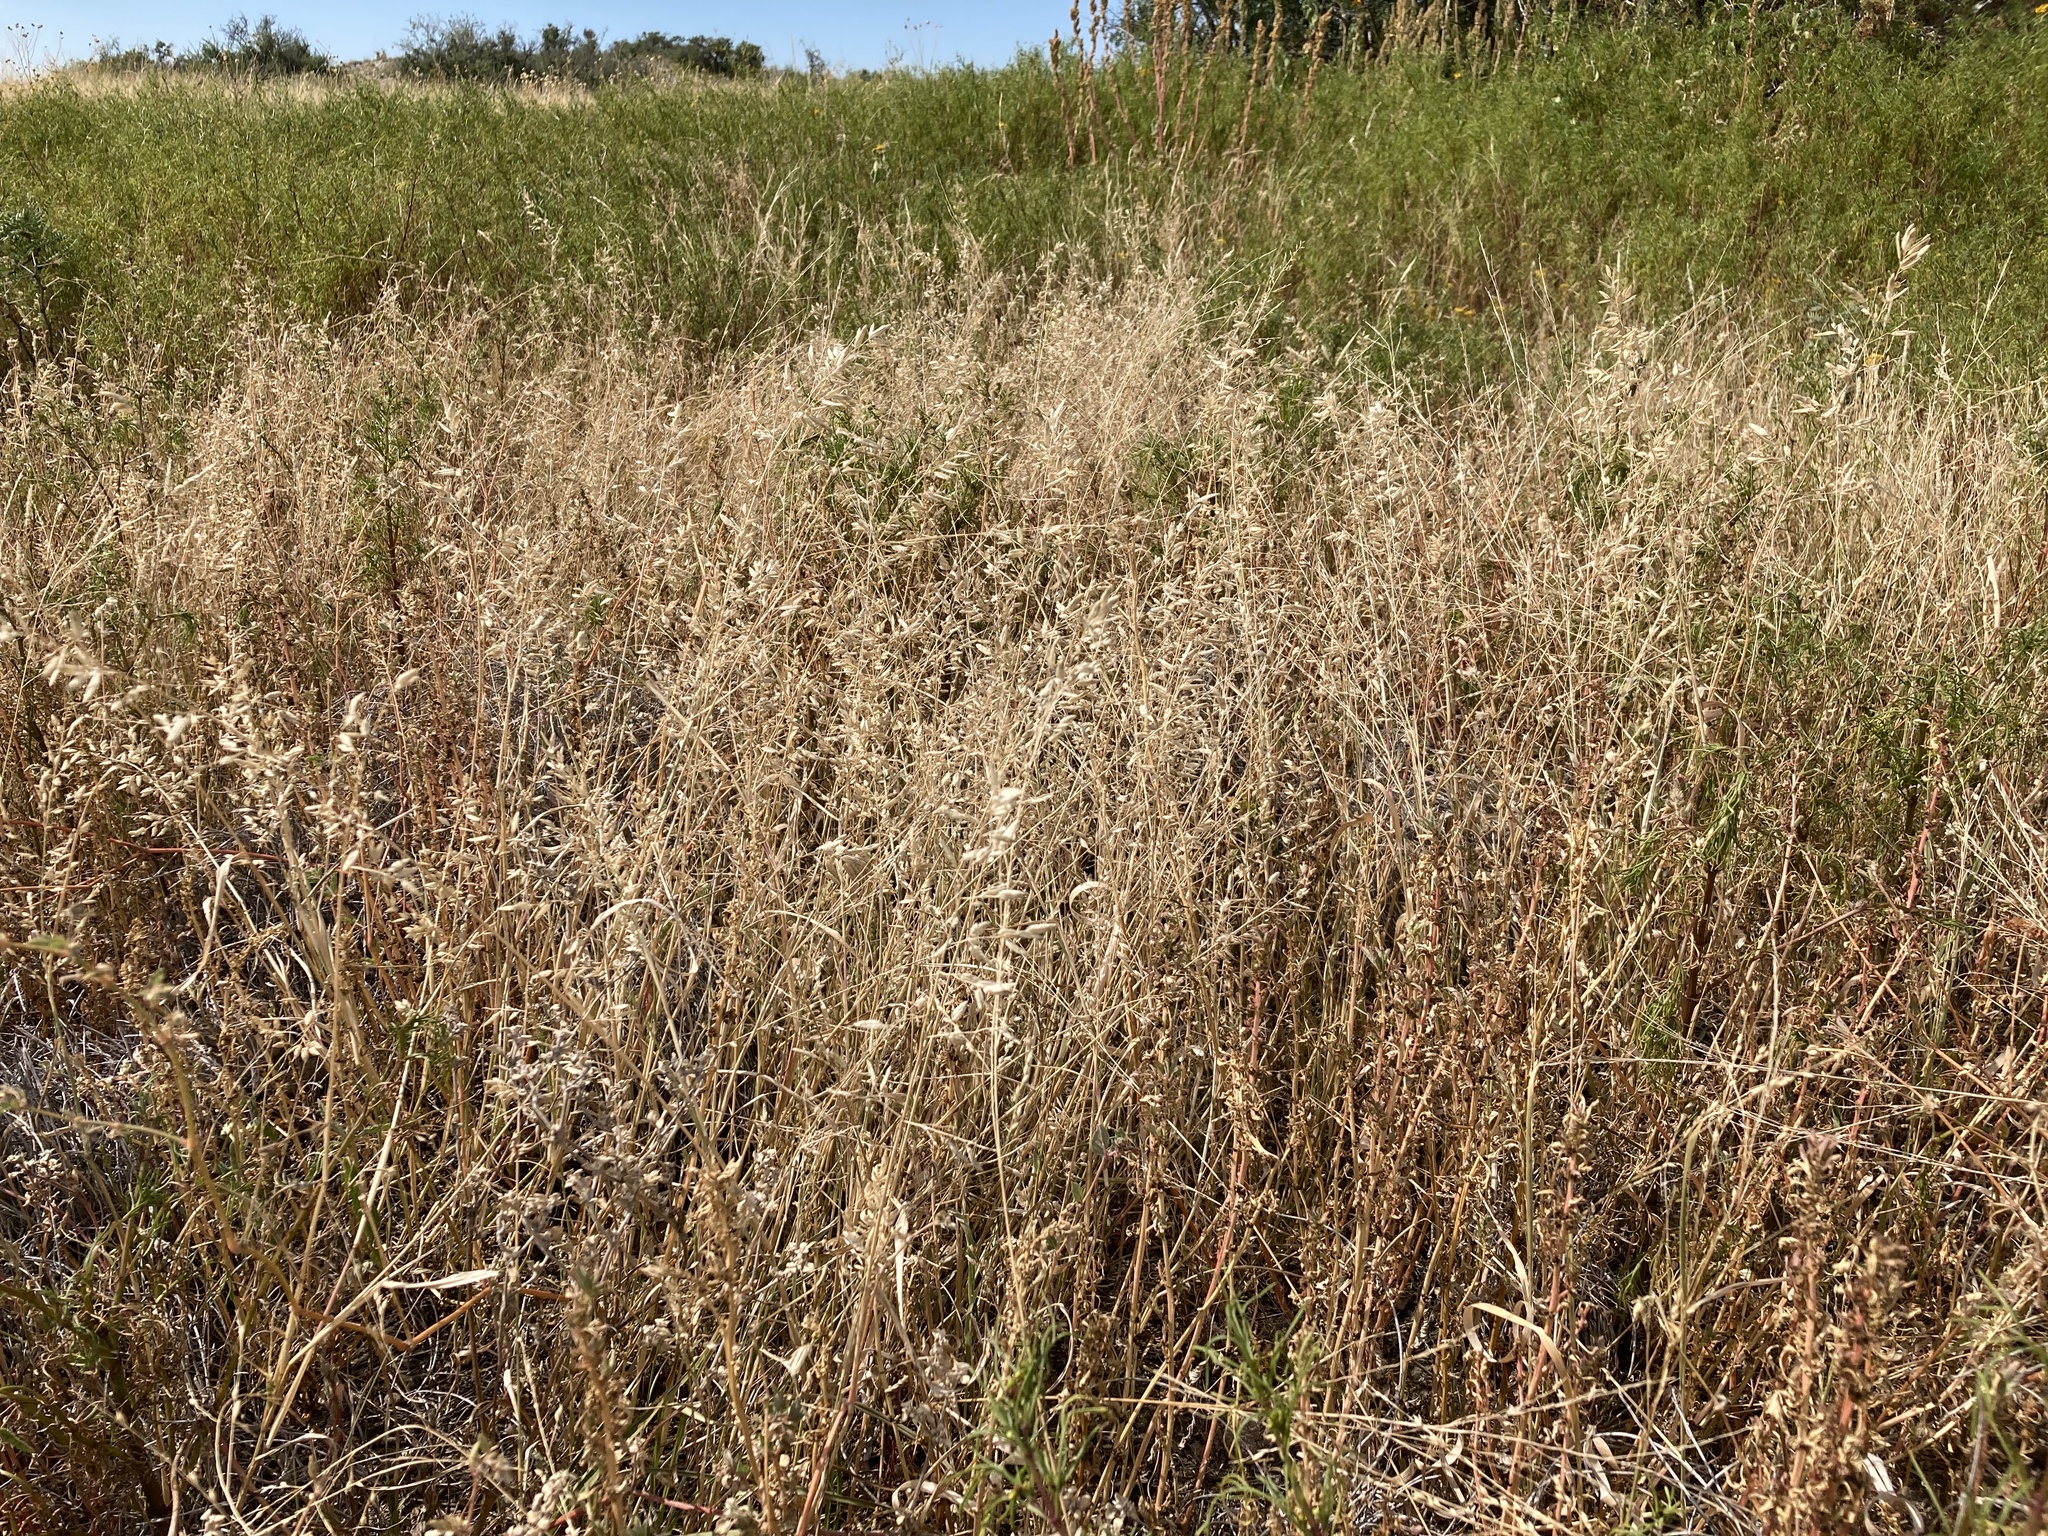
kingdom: Plantae
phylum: Tracheophyta
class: Liliopsida
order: Poales
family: Poaceae
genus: Eragrostis
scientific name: Eragrostis cilianensis
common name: Stinkgrass
